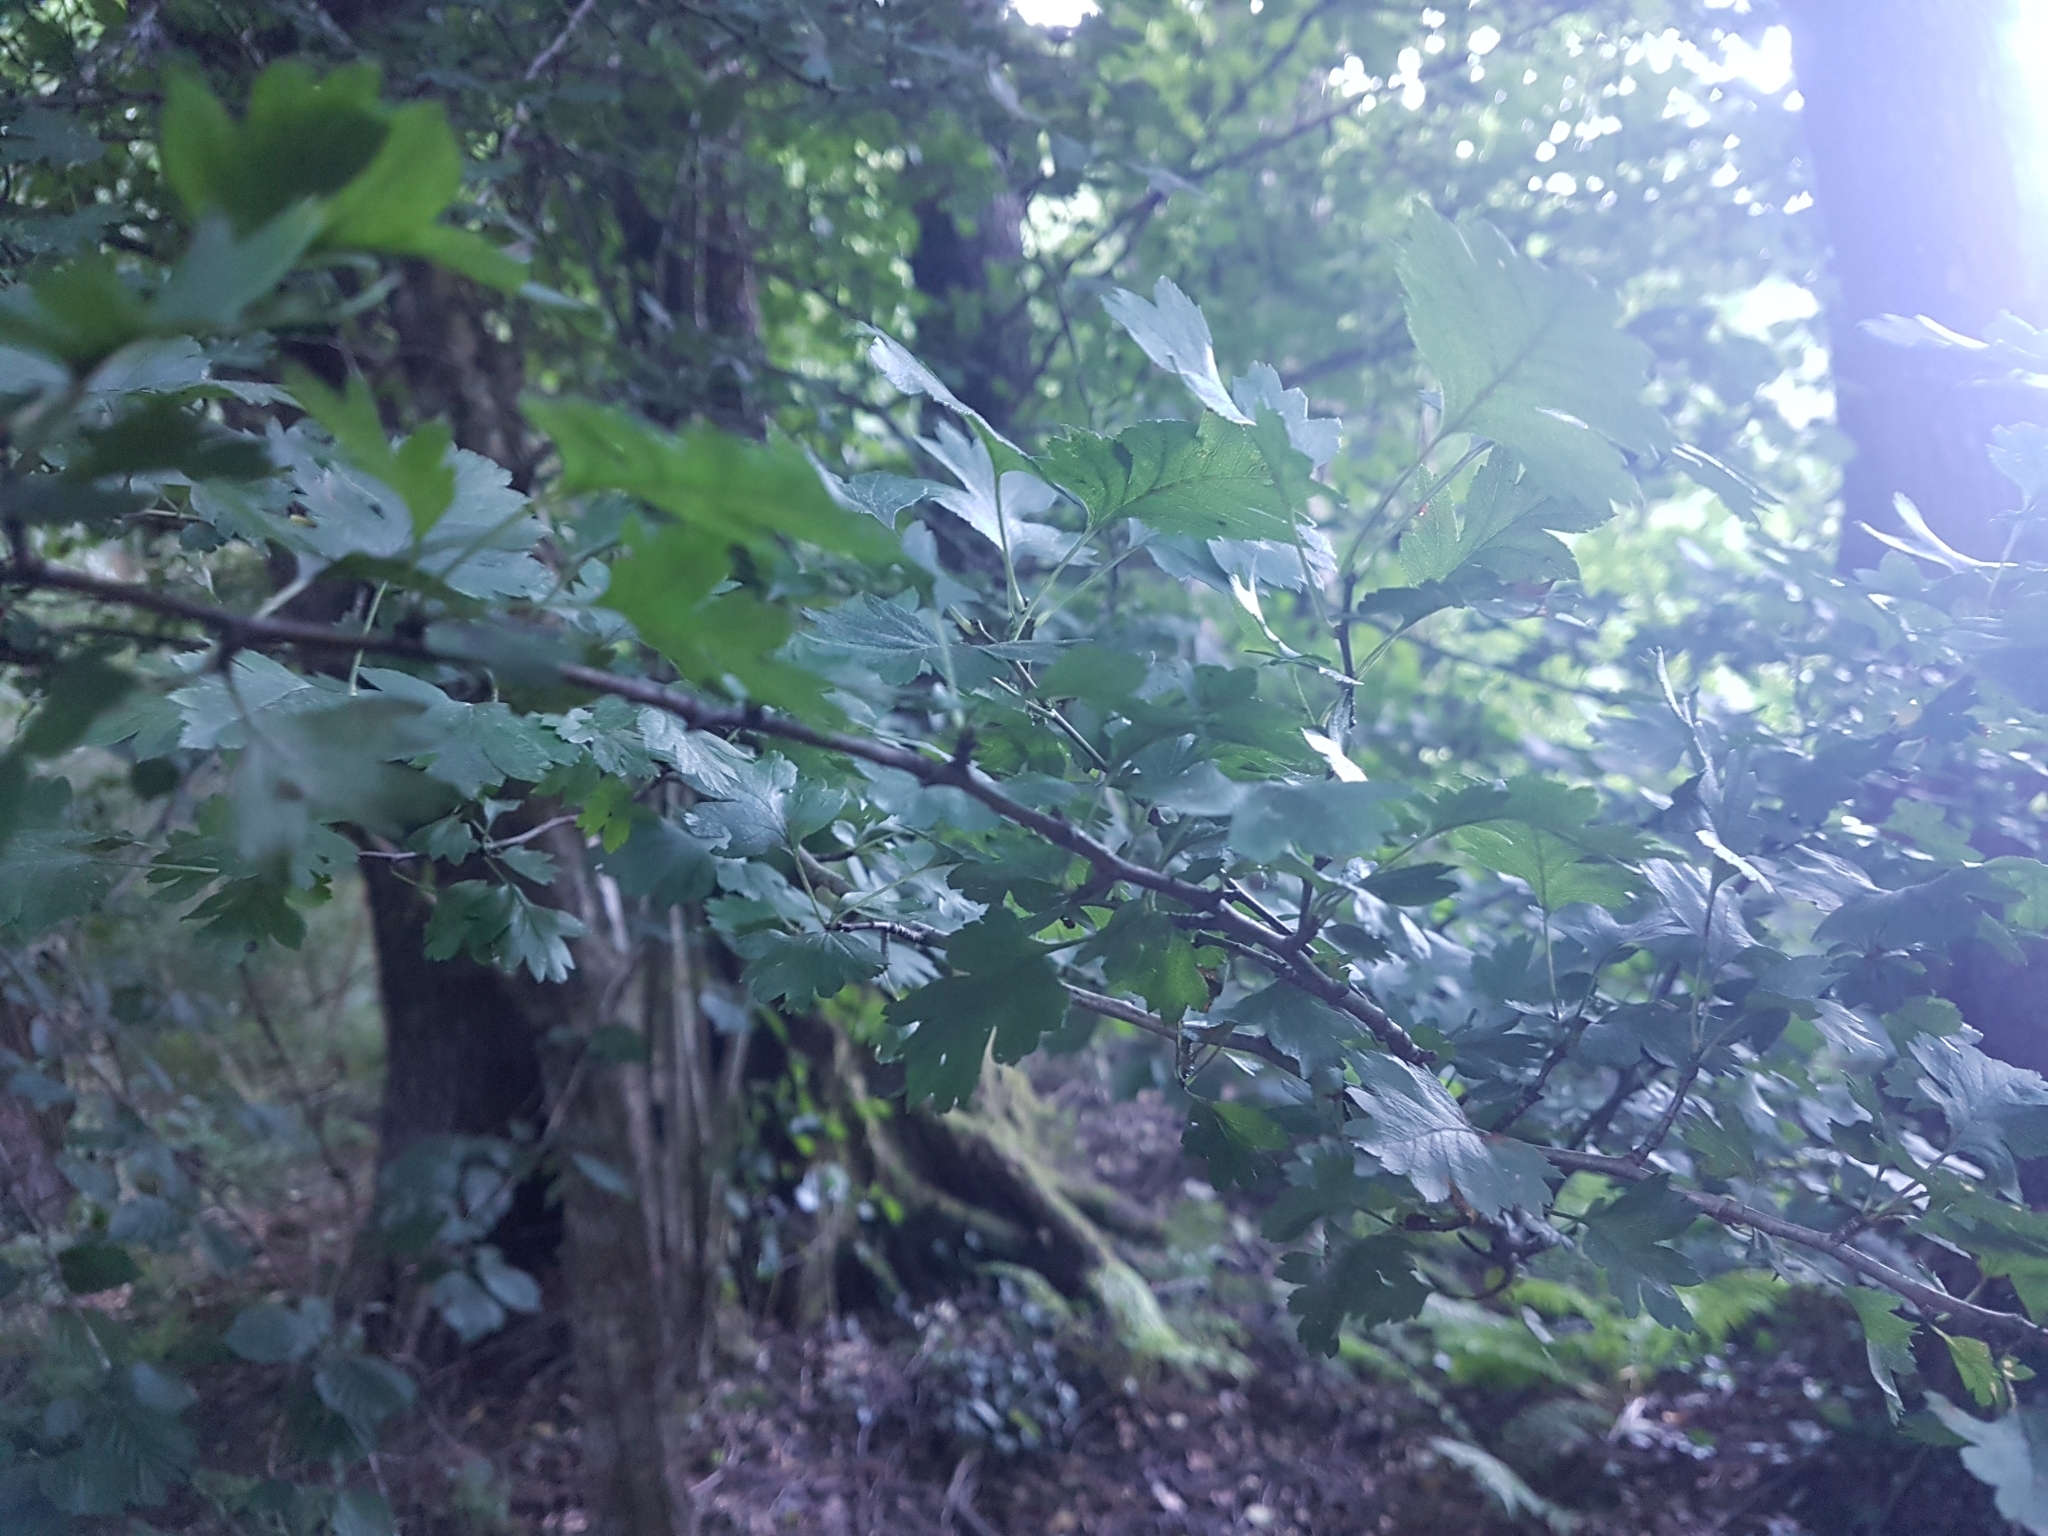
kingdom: Plantae
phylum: Tracheophyta
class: Magnoliopsida
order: Rosales
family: Rosaceae
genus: Crataegus
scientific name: Crataegus monogyna
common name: Hawthorn
